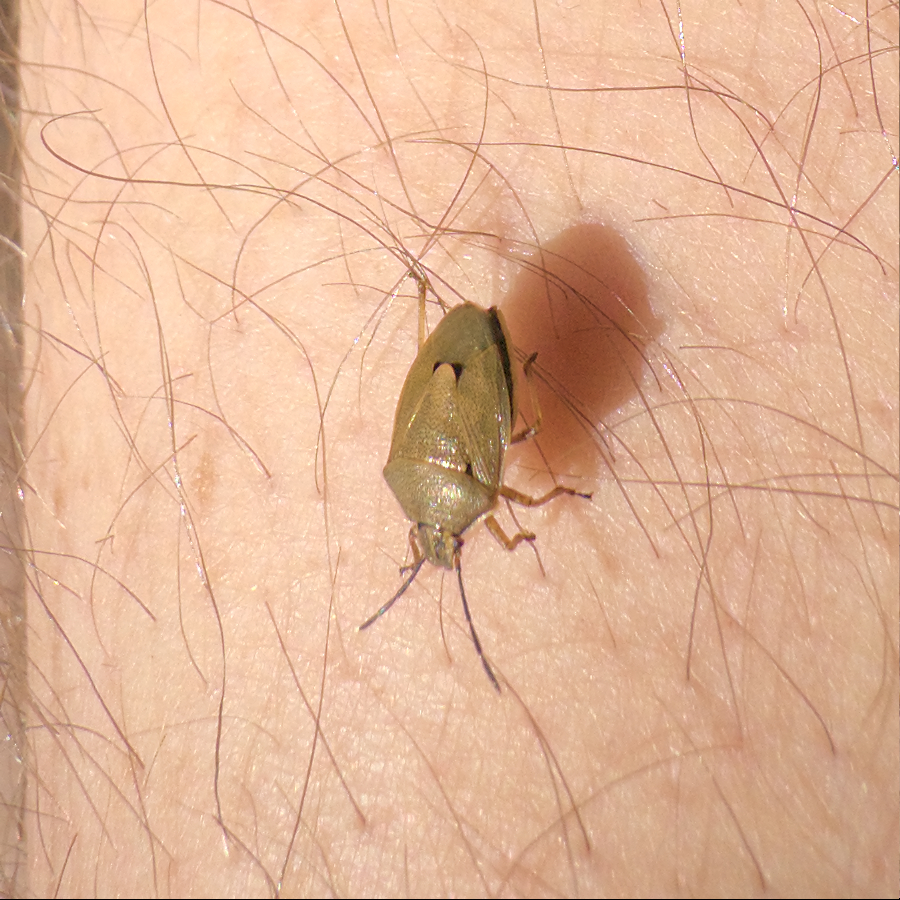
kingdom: Animalia
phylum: Arthropoda
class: Insecta
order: Hemiptera
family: Pentatomidae
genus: Mycoolona
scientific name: Mycoolona
